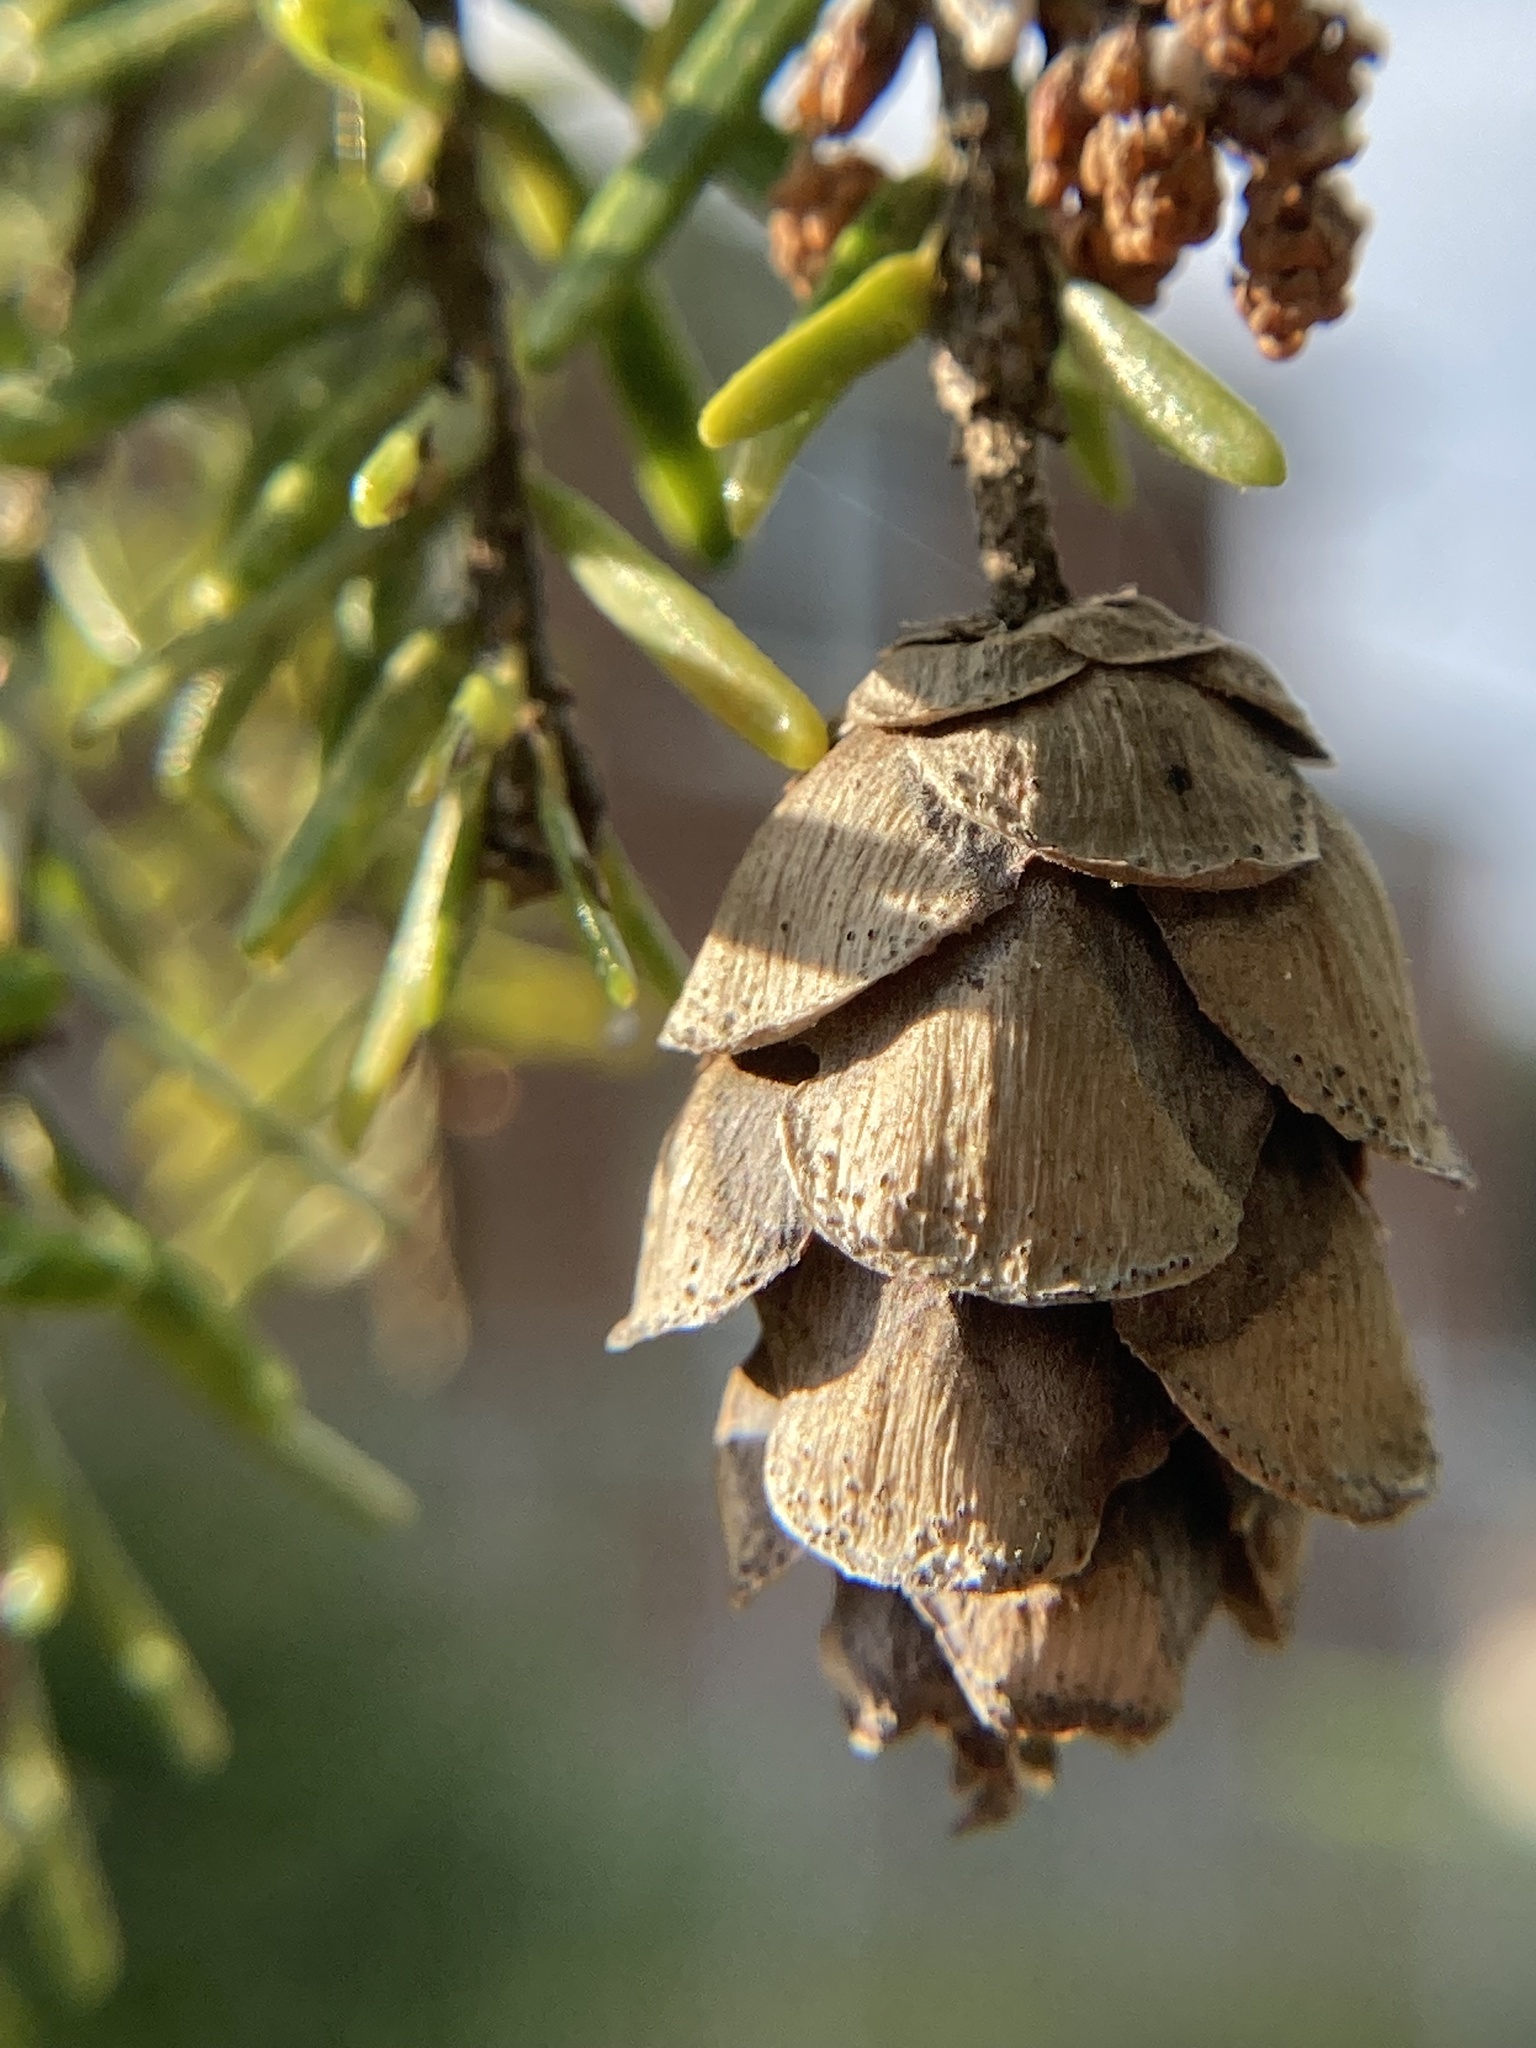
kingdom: Plantae
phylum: Tracheophyta
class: Pinopsida
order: Pinales
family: Pinaceae
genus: Tsuga
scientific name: Tsuga canadensis
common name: Eastern hemlock
